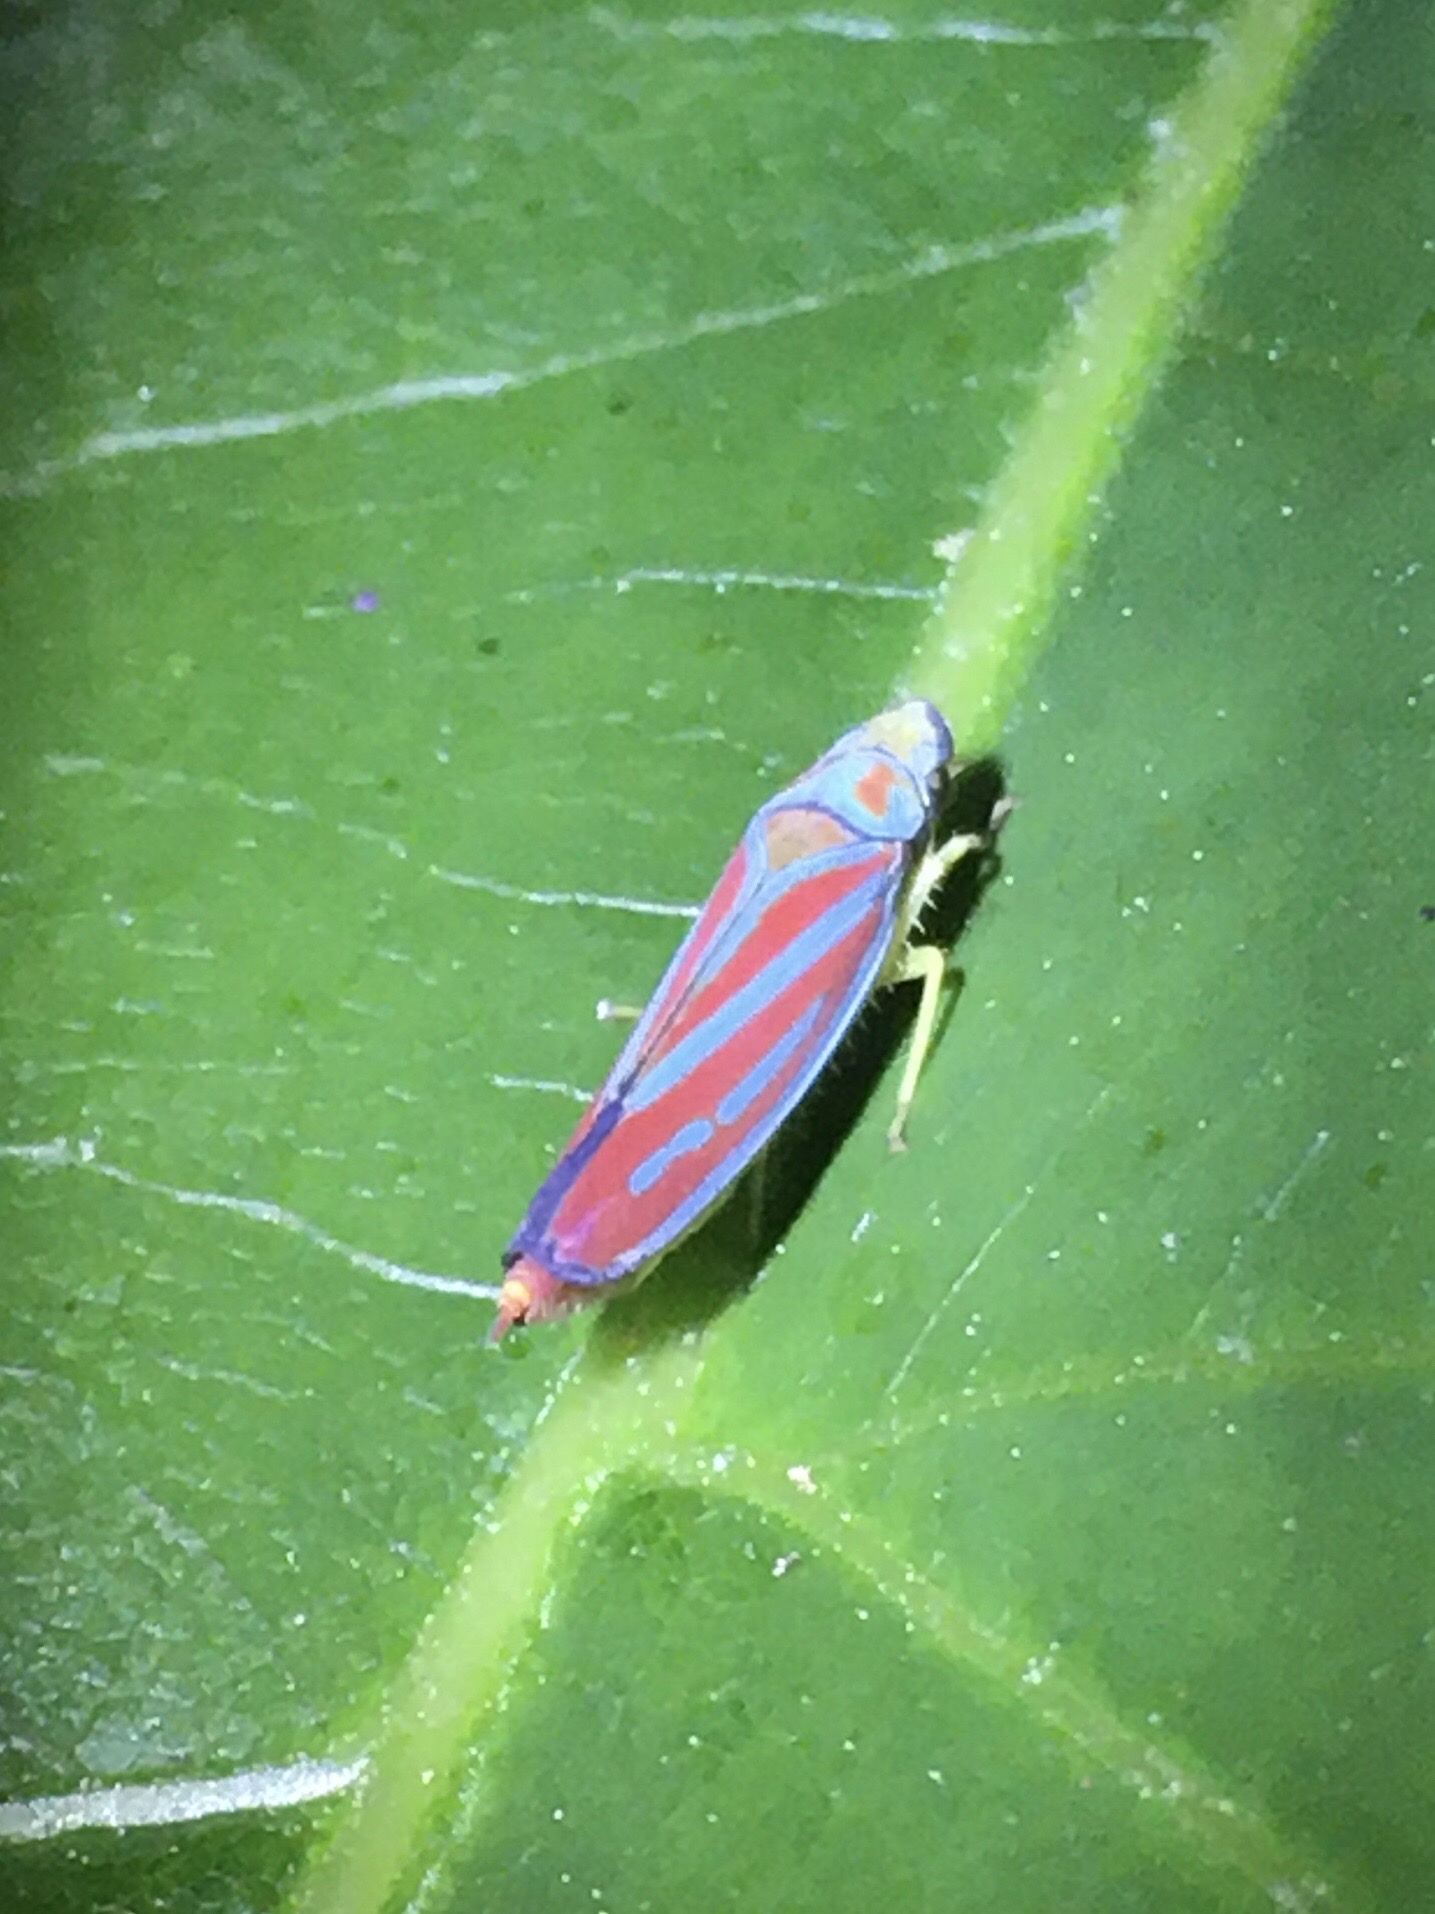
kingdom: Animalia
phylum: Arthropoda
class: Insecta
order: Hemiptera
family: Cicadellidae
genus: Graphocephala
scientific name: Graphocephala coccinea
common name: Candy-striped leafhopper
